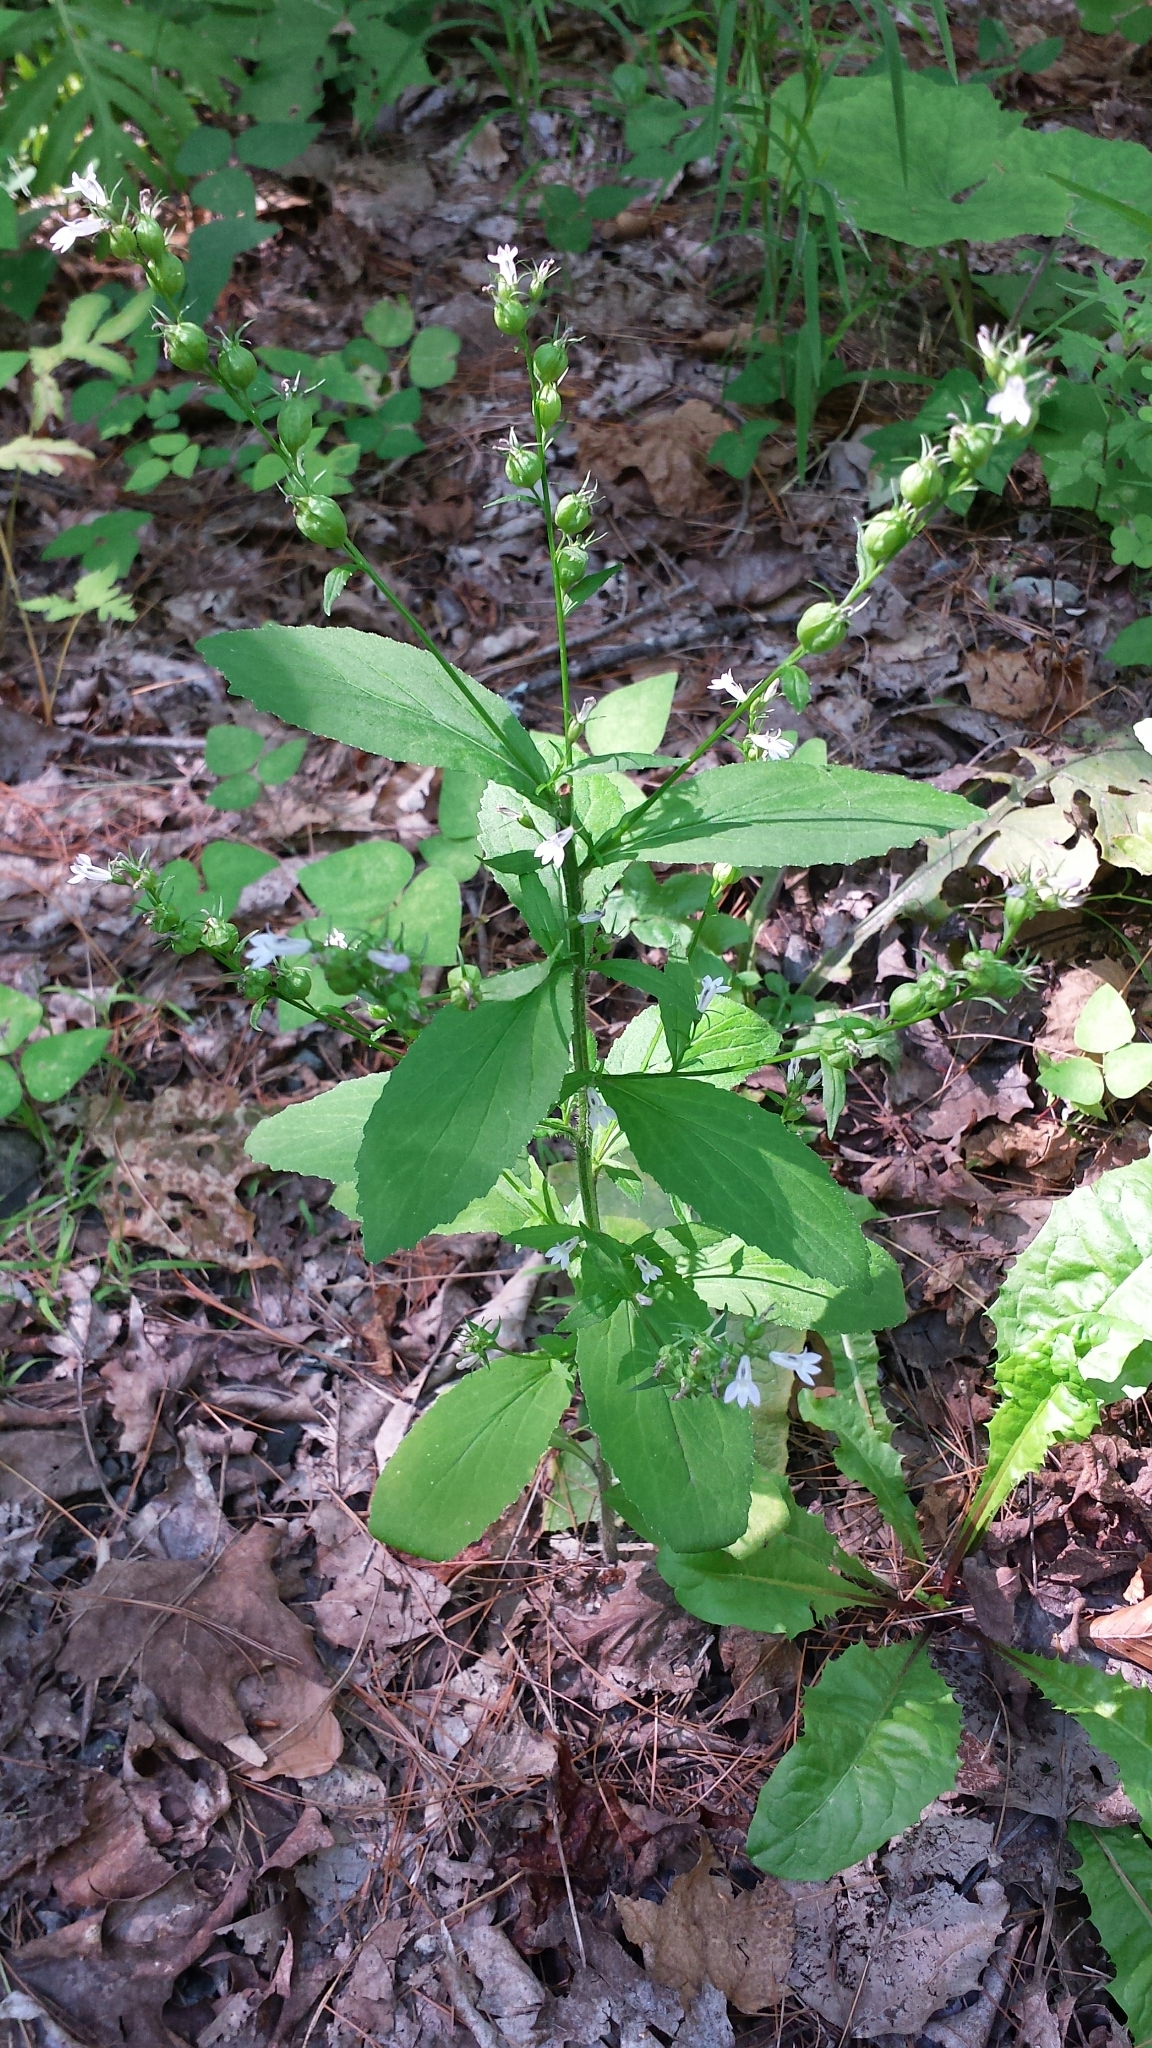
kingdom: Plantae
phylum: Tracheophyta
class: Magnoliopsida
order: Asterales
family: Campanulaceae
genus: Lobelia
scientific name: Lobelia inflata
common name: Indian tobacco
